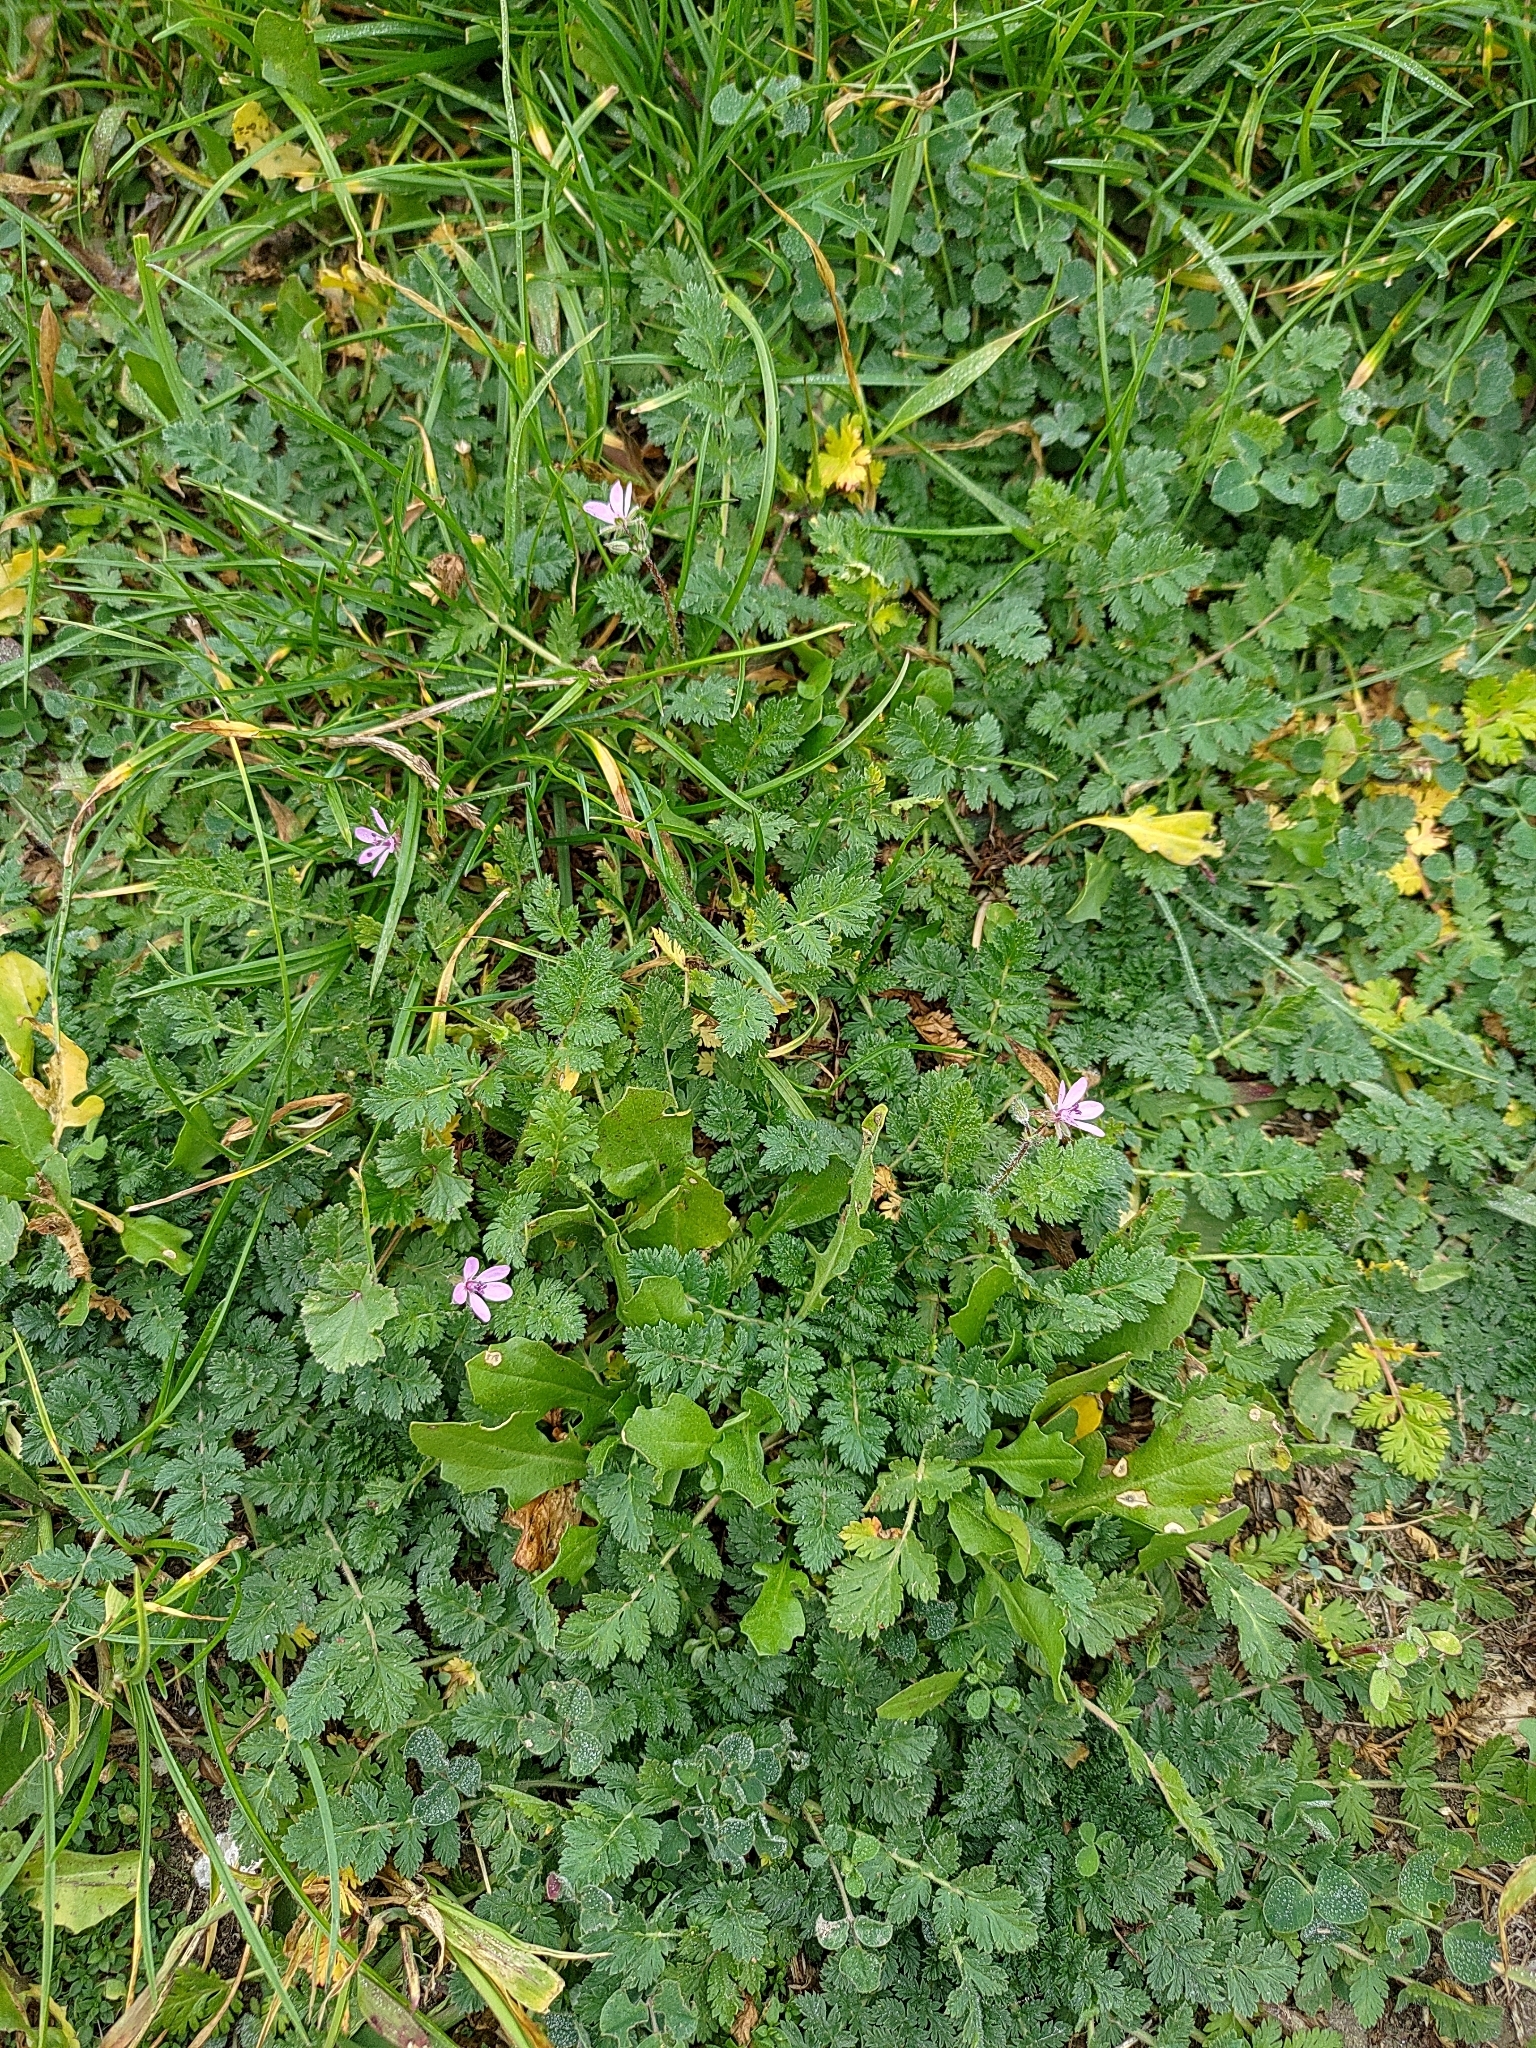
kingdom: Plantae
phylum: Tracheophyta
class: Magnoliopsida
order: Geraniales
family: Geraniaceae
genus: Erodium
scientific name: Erodium cicutarium
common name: Common stork's-bill
